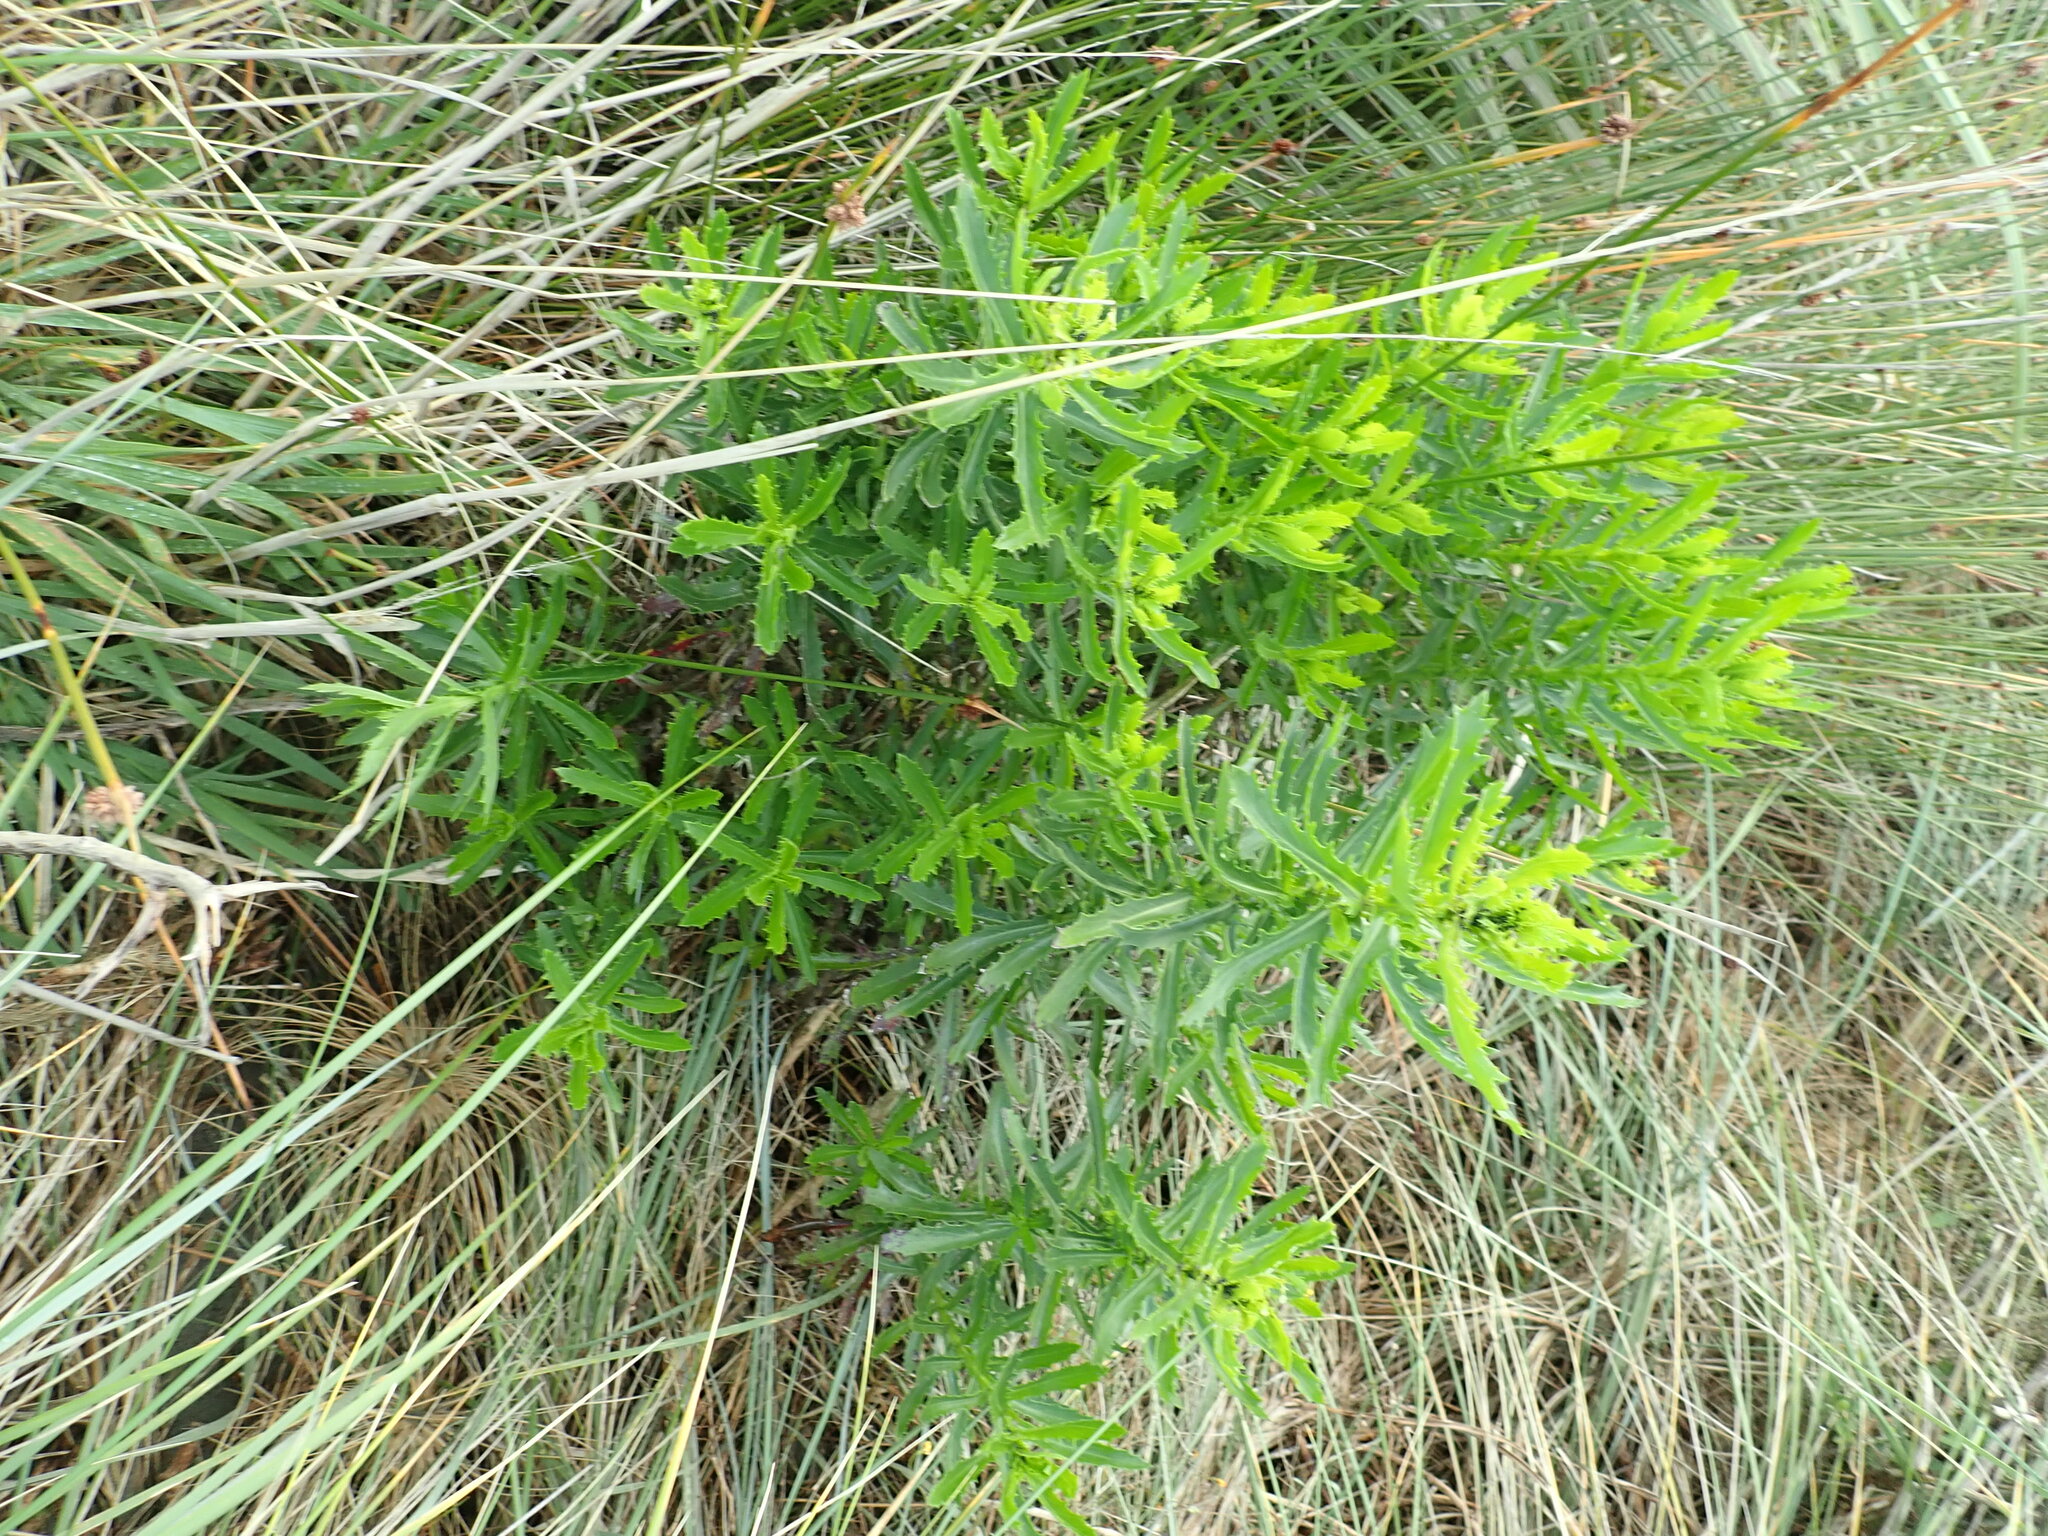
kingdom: Plantae
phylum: Tracheophyta
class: Magnoliopsida
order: Asterales
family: Asteraceae
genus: Senecio
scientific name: Senecio glastifolius
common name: Woad-leaved ragwort
